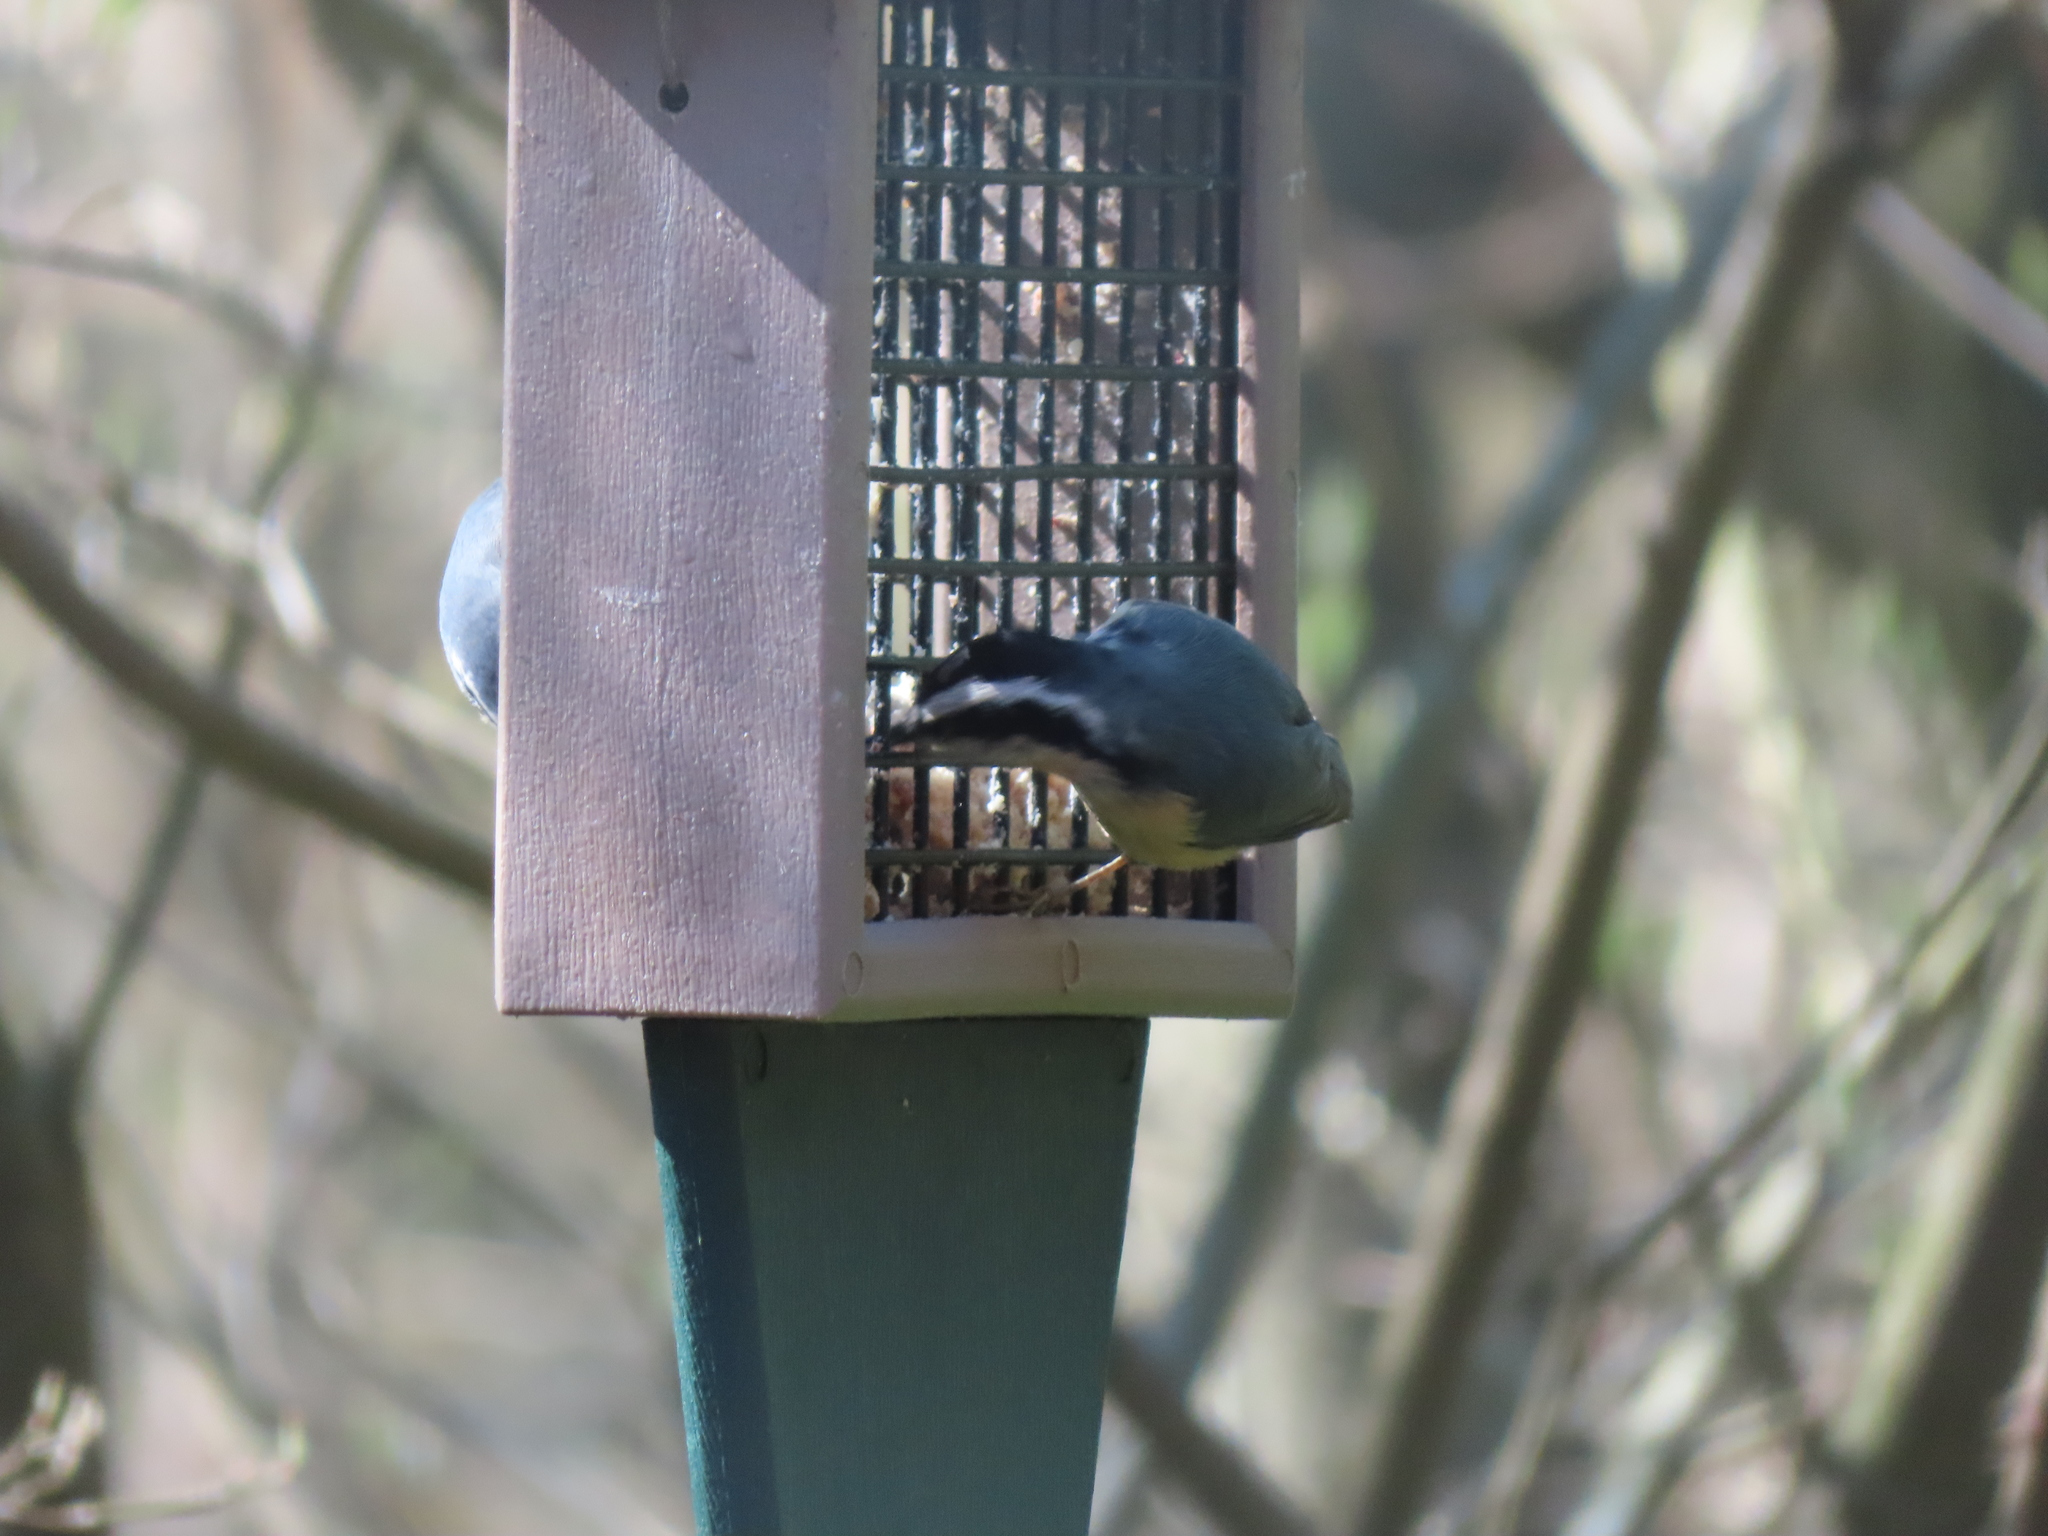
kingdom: Animalia
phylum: Chordata
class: Aves
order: Passeriformes
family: Sittidae
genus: Sitta
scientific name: Sitta canadensis
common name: Red-breasted nuthatch
